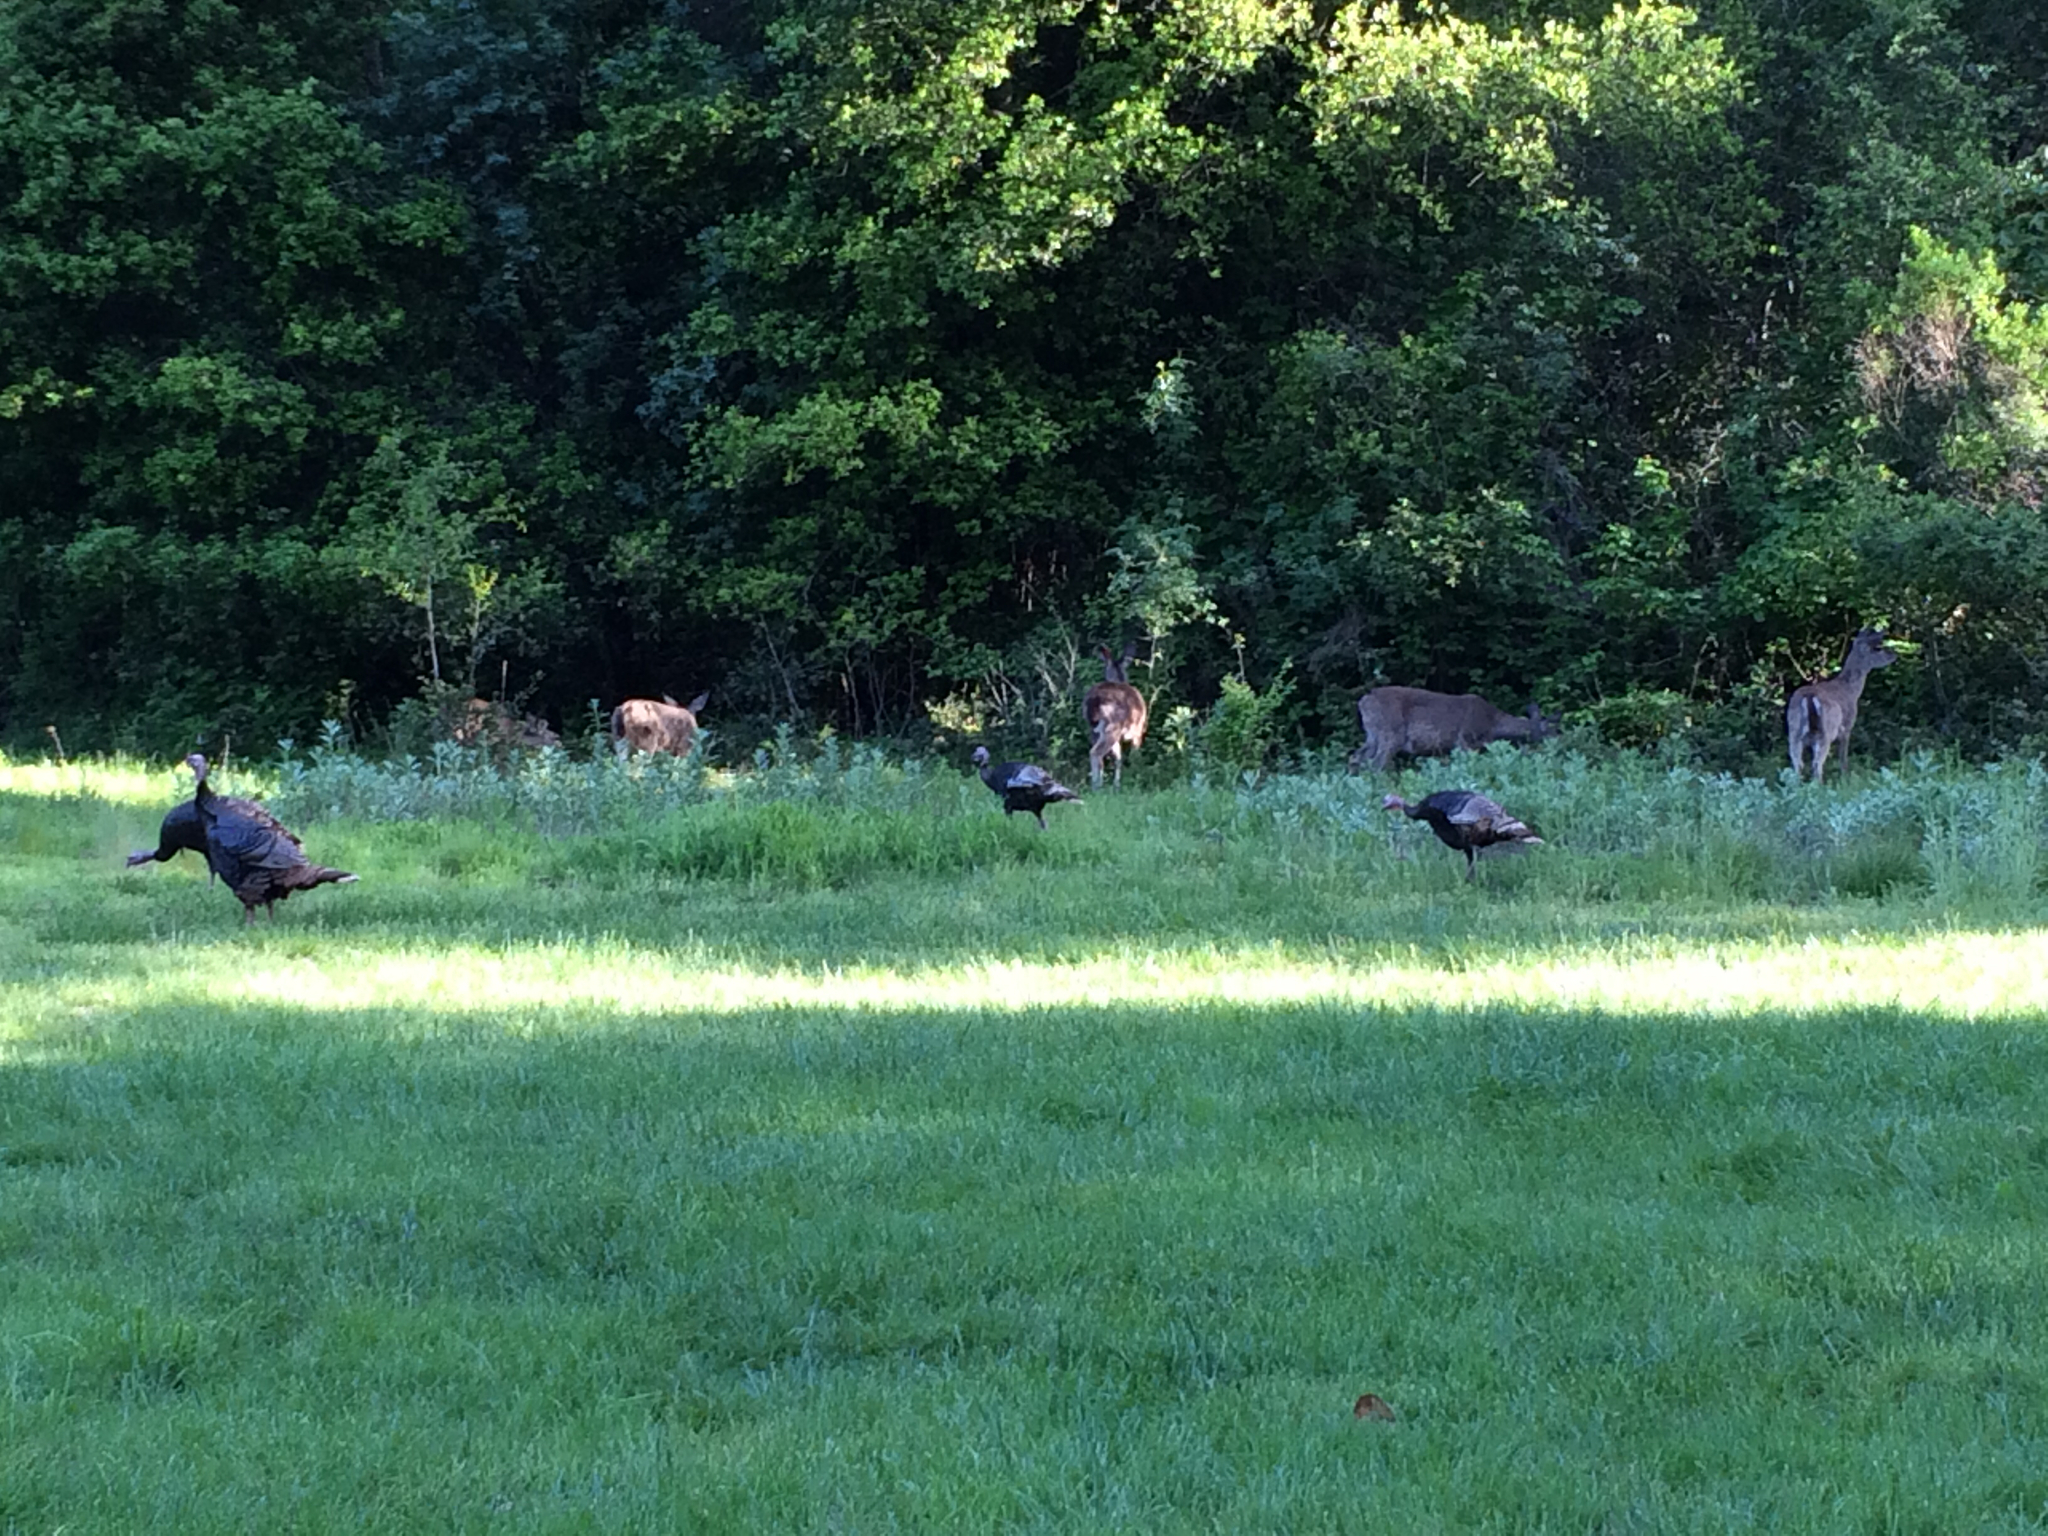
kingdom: Animalia
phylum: Chordata
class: Aves
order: Galliformes
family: Phasianidae
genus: Meleagris
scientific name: Meleagris gallopavo
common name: Wild turkey
